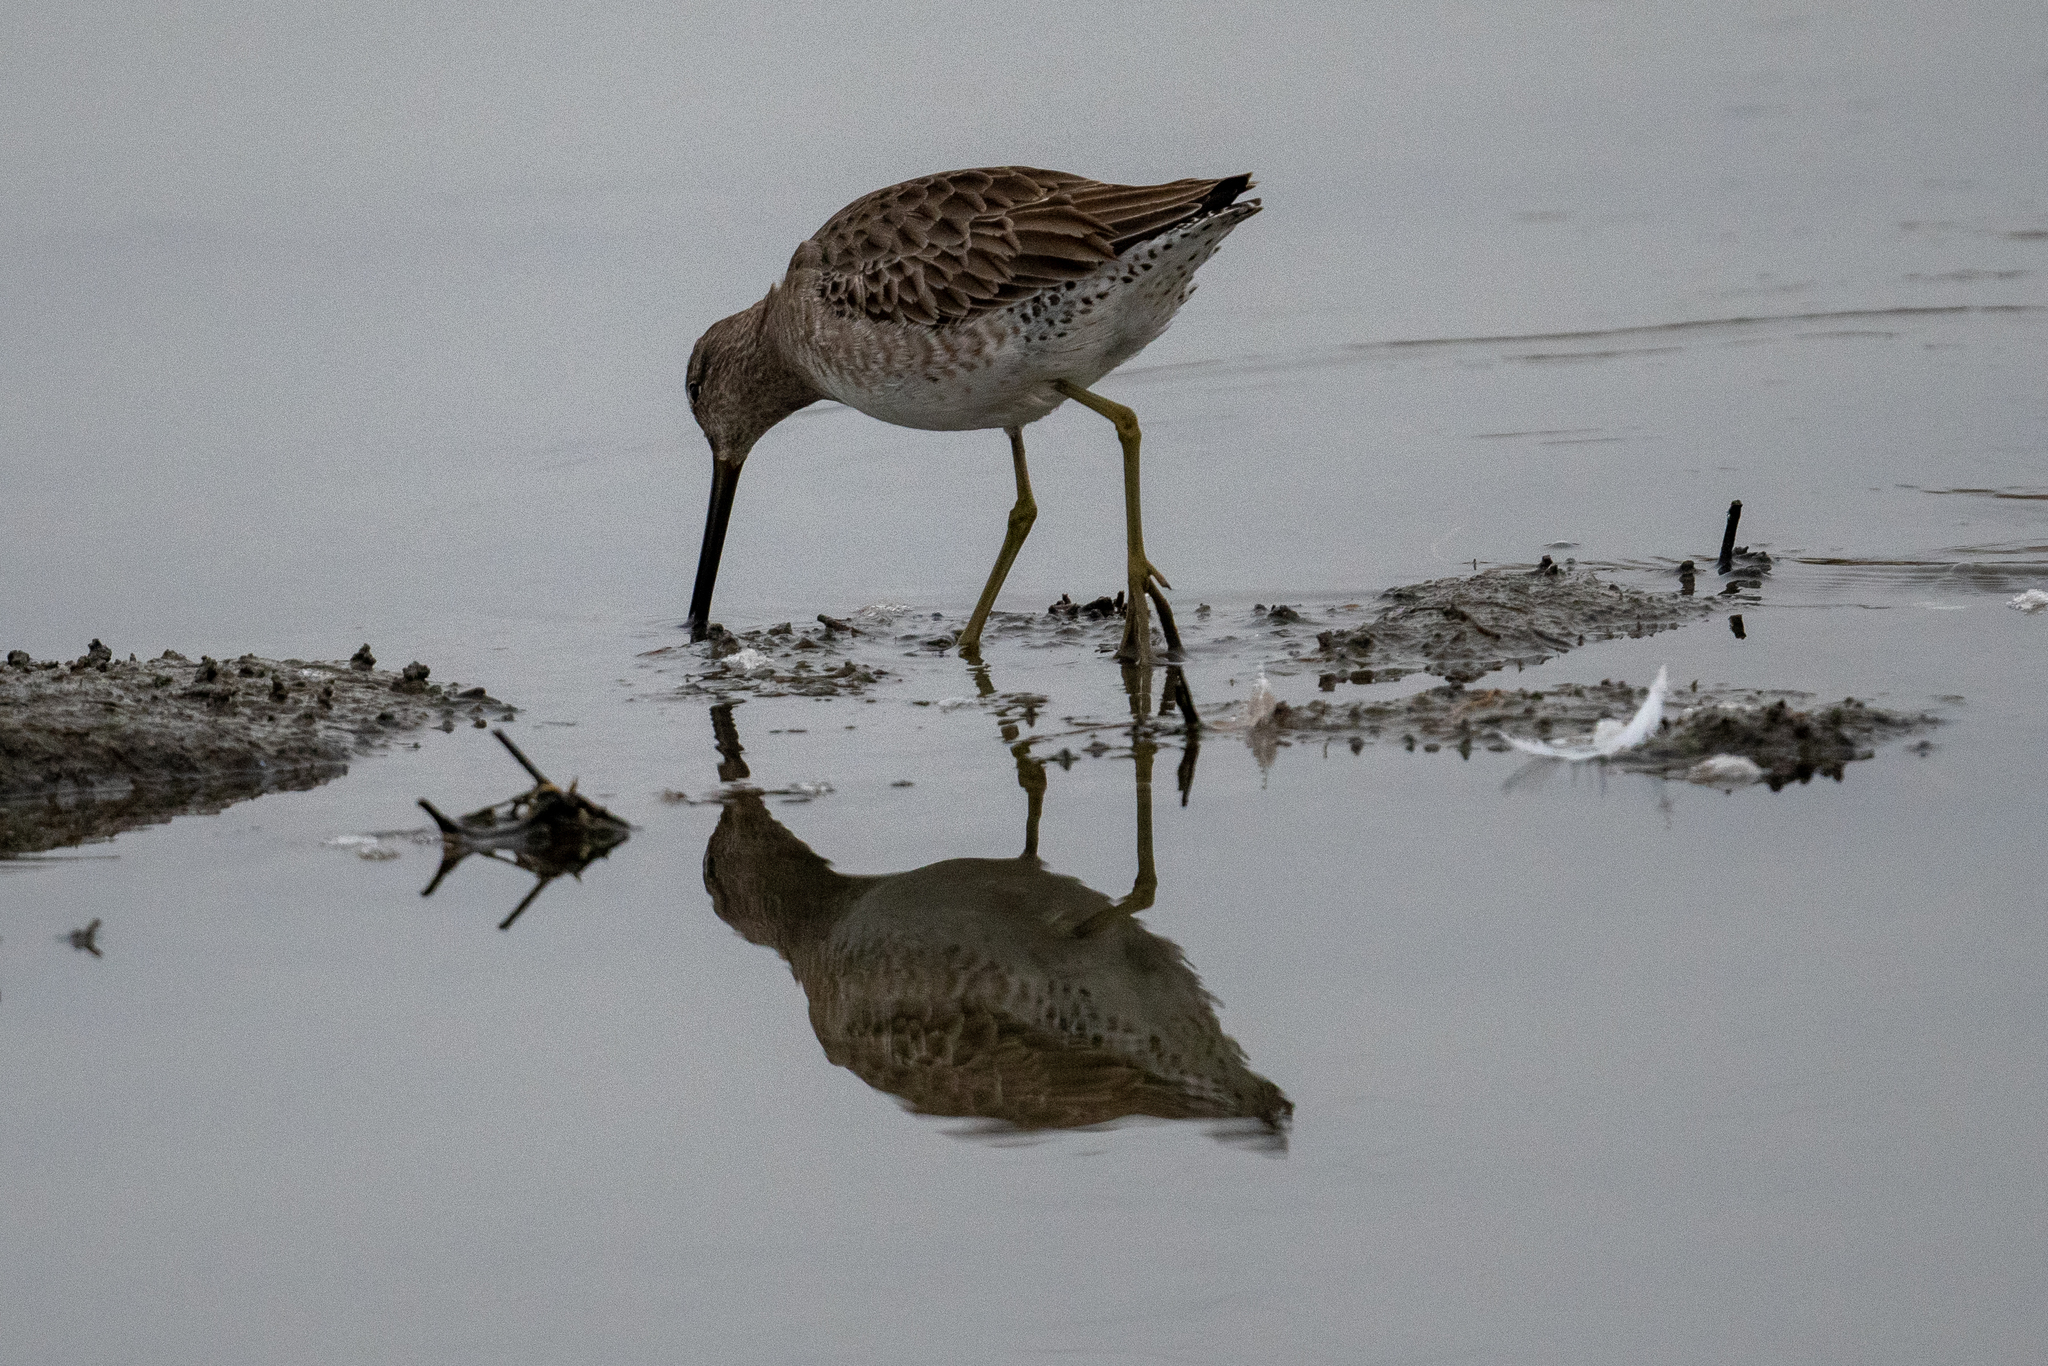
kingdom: Animalia
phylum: Chordata
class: Aves
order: Charadriiformes
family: Scolopacidae
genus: Limnodromus
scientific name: Limnodromus scolopaceus
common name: Long-billed dowitcher
